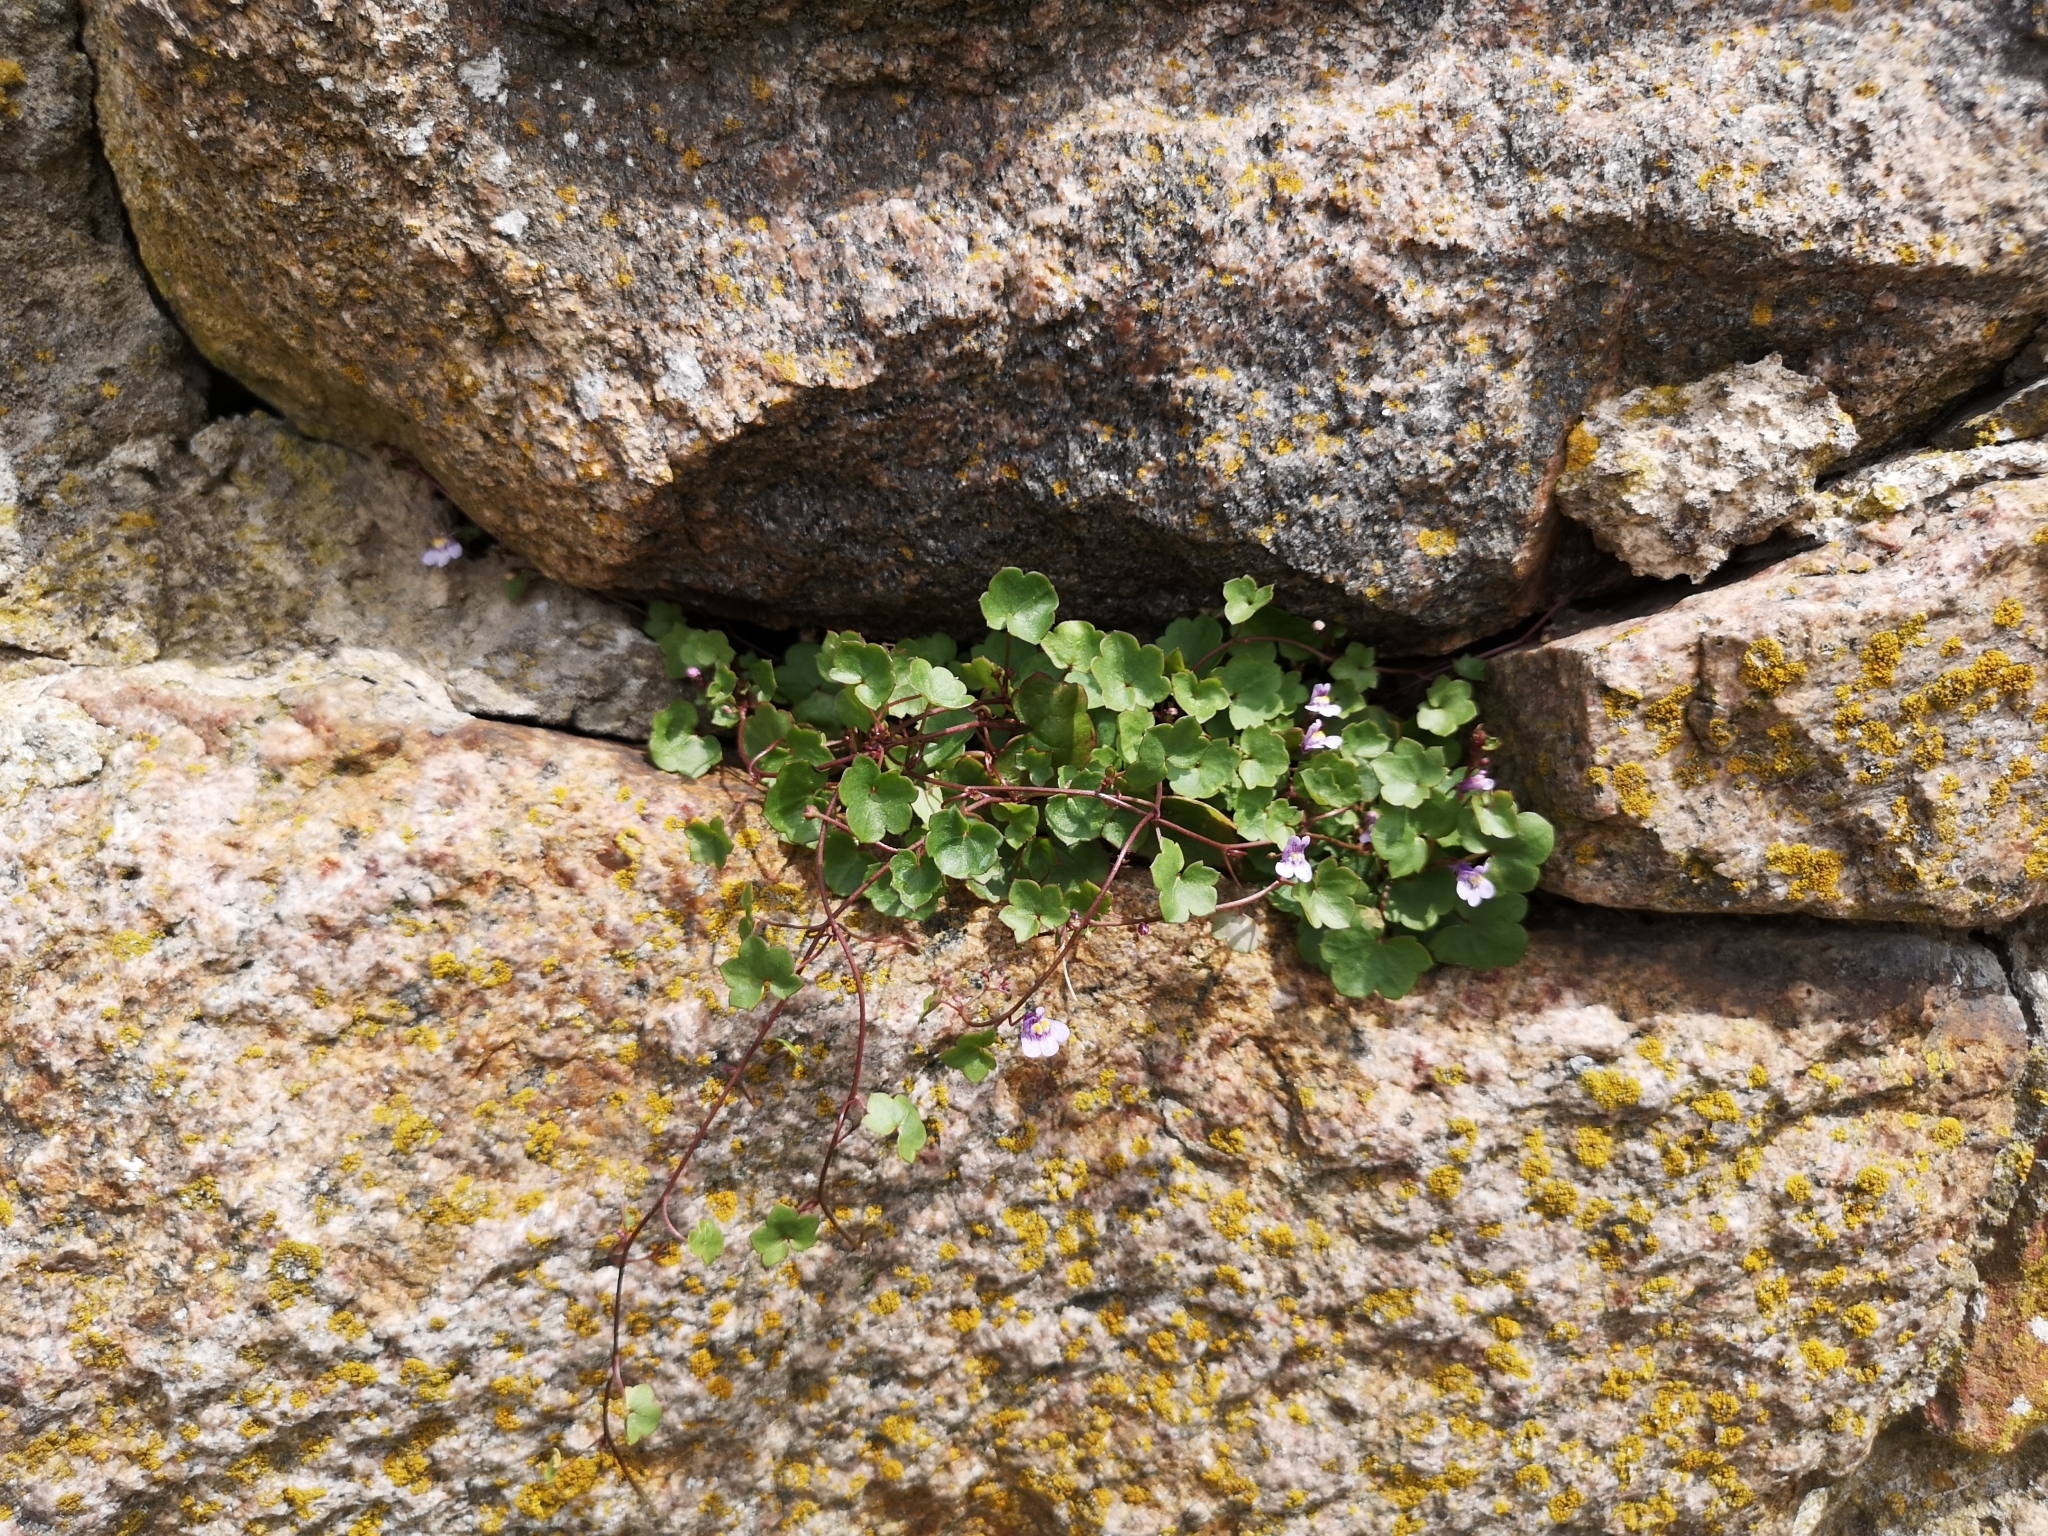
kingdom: Plantae
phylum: Tracheophyta
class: Magnoliopsida
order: Lamiales
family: Plantaginaceae
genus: Cymbalaria
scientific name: Cymbalaria muralis
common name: Ivy-leaved toadflax
